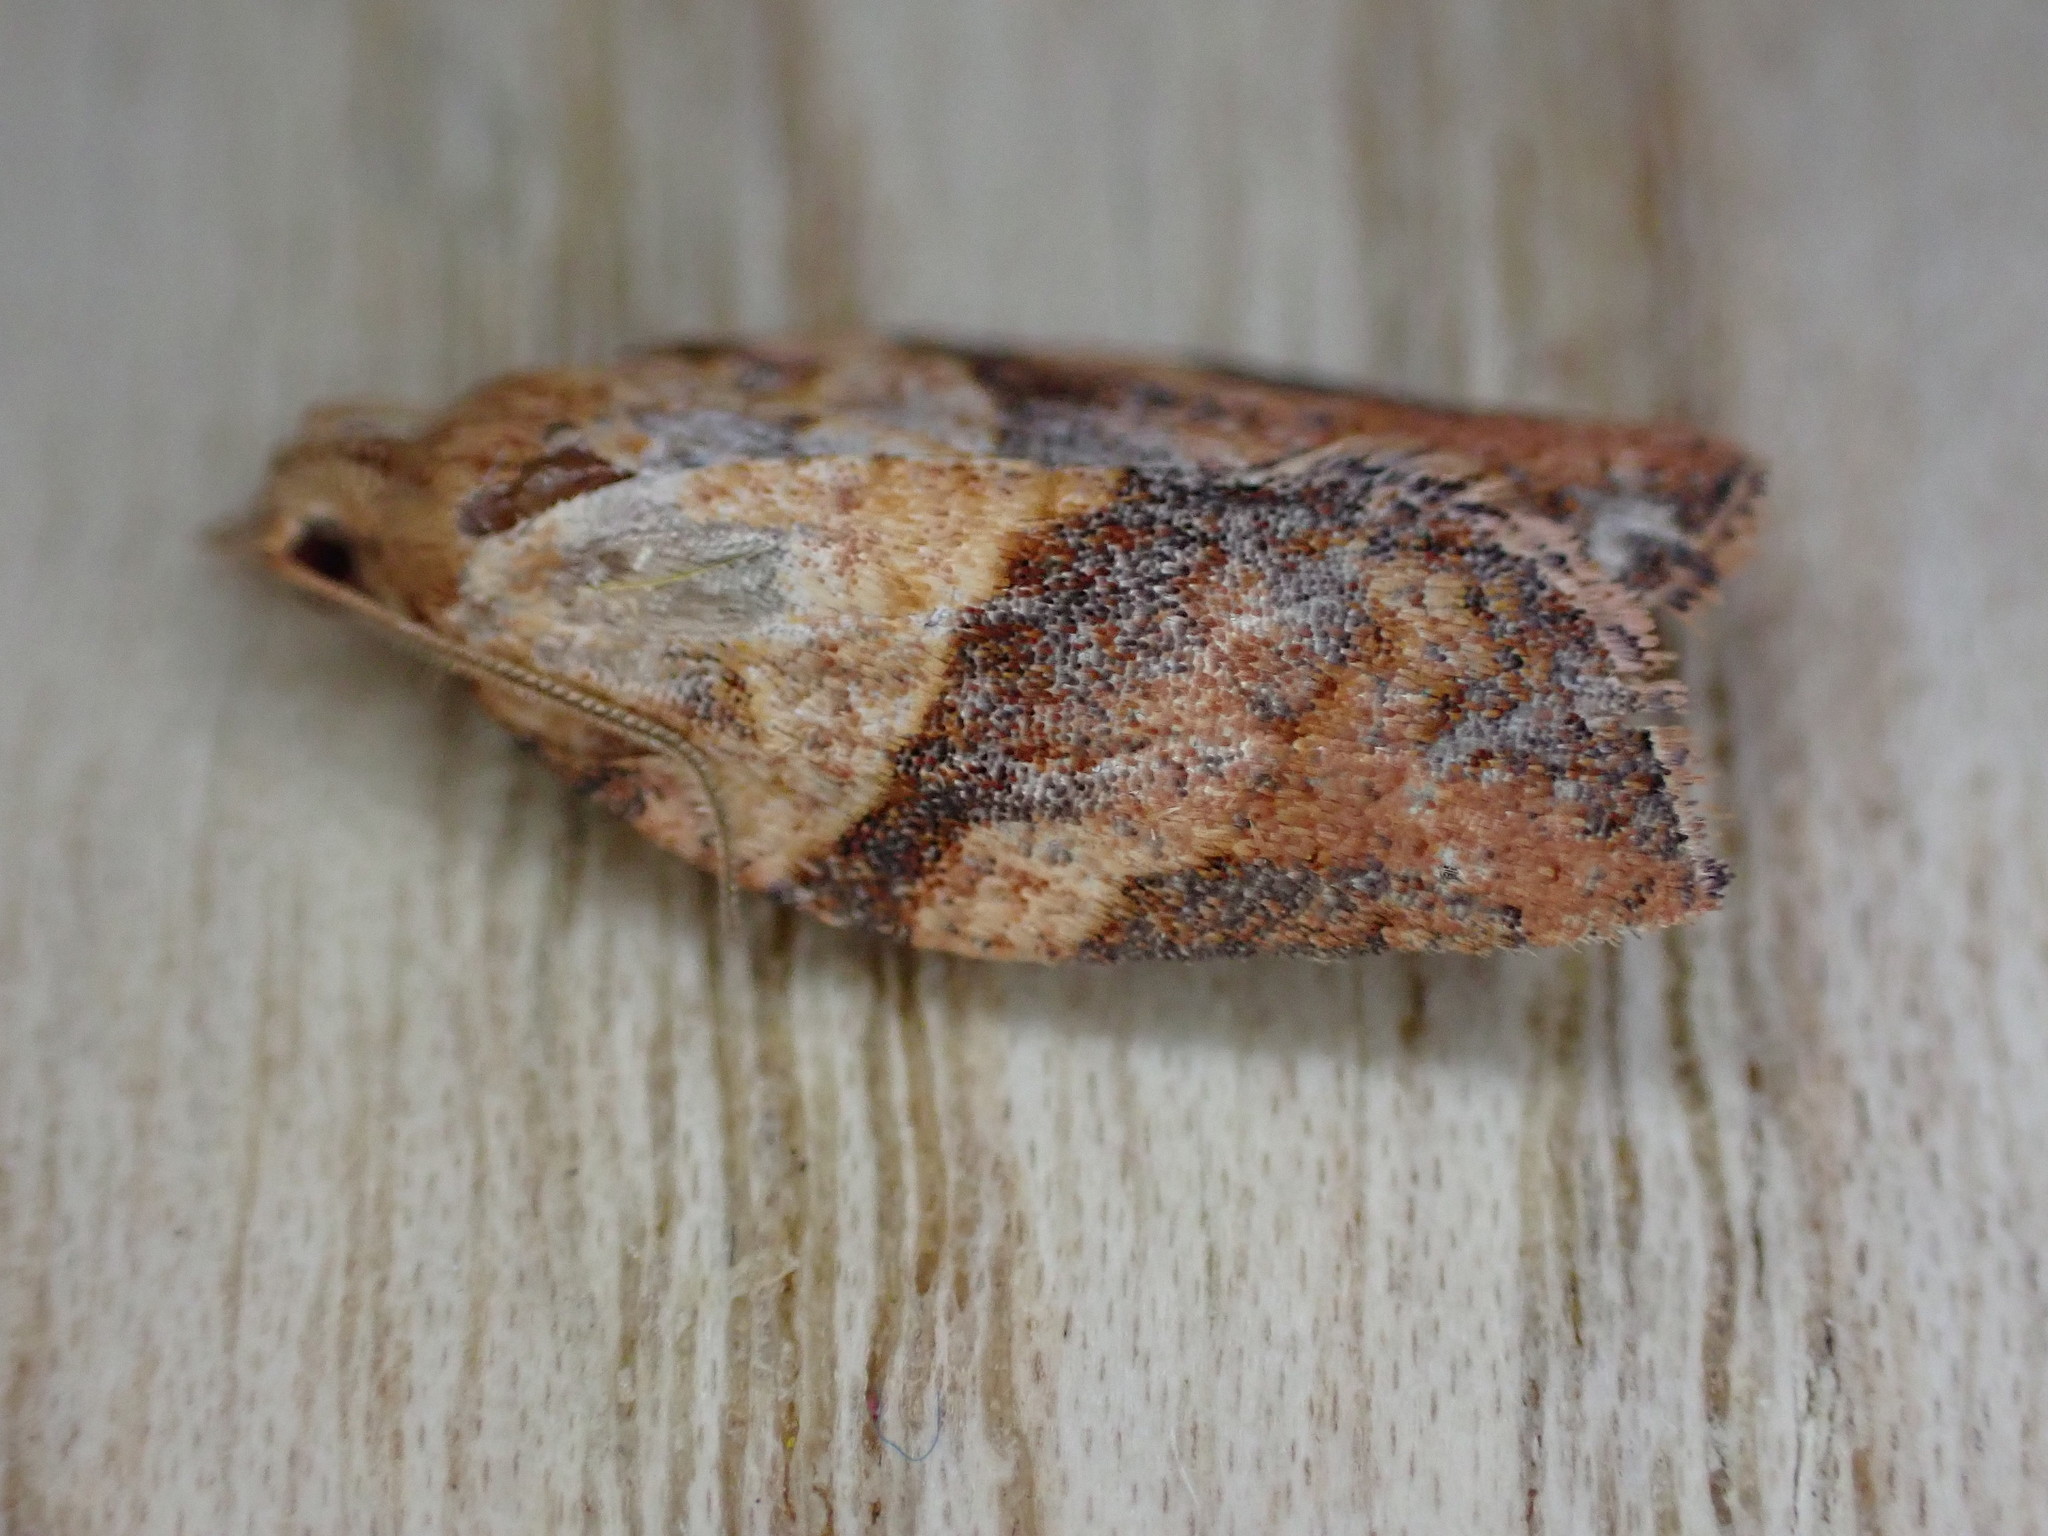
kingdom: Animalia
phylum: Arthropoda
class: Insecta
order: Lepidoptera
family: Tortricidae
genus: Epiphyas
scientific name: Epiphyas postvittana
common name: Light brown apple moth
